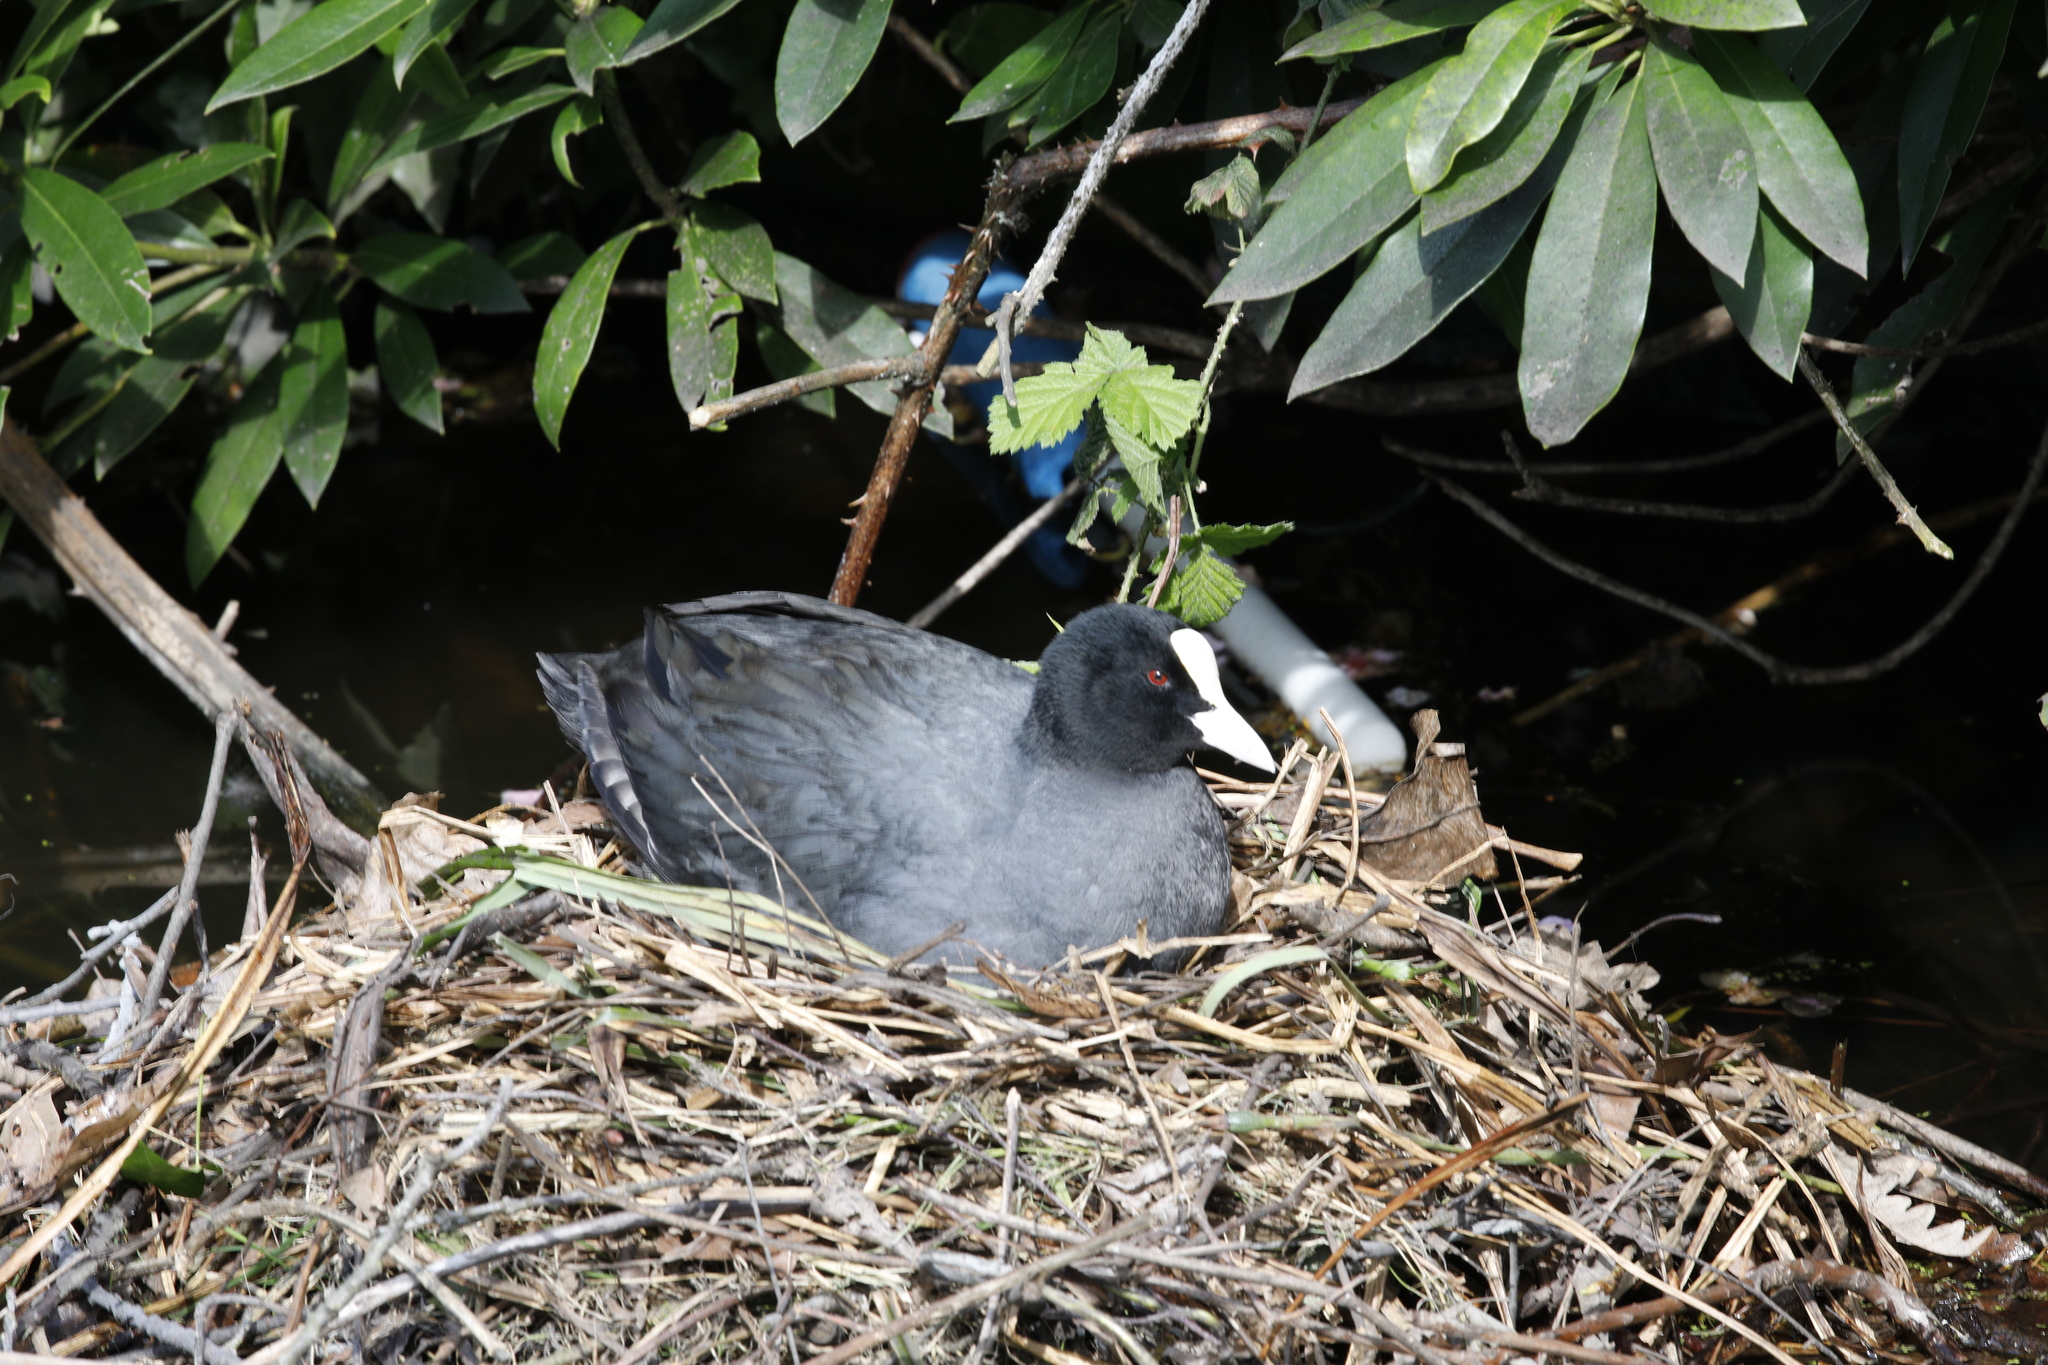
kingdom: Animalia
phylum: Chordata
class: Aves
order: Gruiformes
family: Rallidae
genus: Fulica
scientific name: Fulica atra
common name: Eurasian coot
